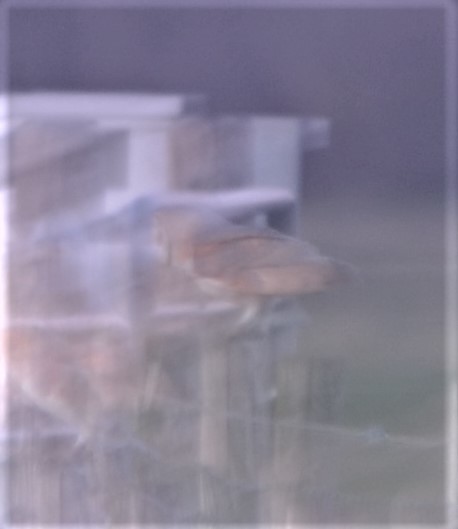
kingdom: Animalia
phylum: Chordata
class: Aves
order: Strigiformes
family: Tytonidae
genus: Tyto
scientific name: Tyto alba
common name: Barn owl
